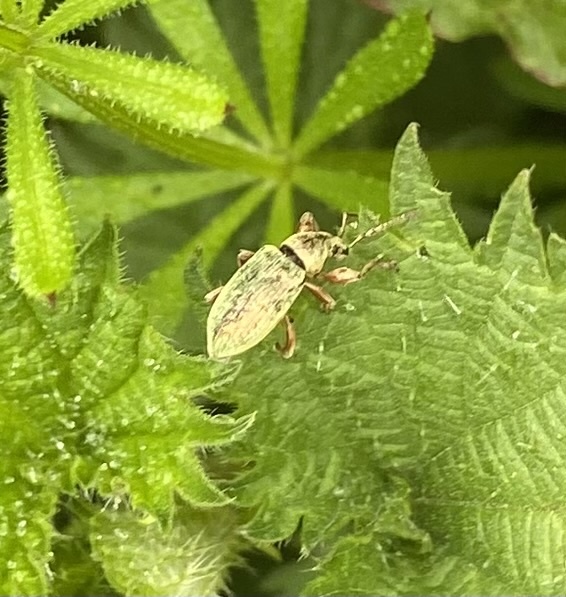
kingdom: Animalia
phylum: Arthropoda
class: Insecta
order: Coleoptera
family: Curculionidae
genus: Phyllobius
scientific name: Phyllobius pomaceus
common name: Green nettle weevil
